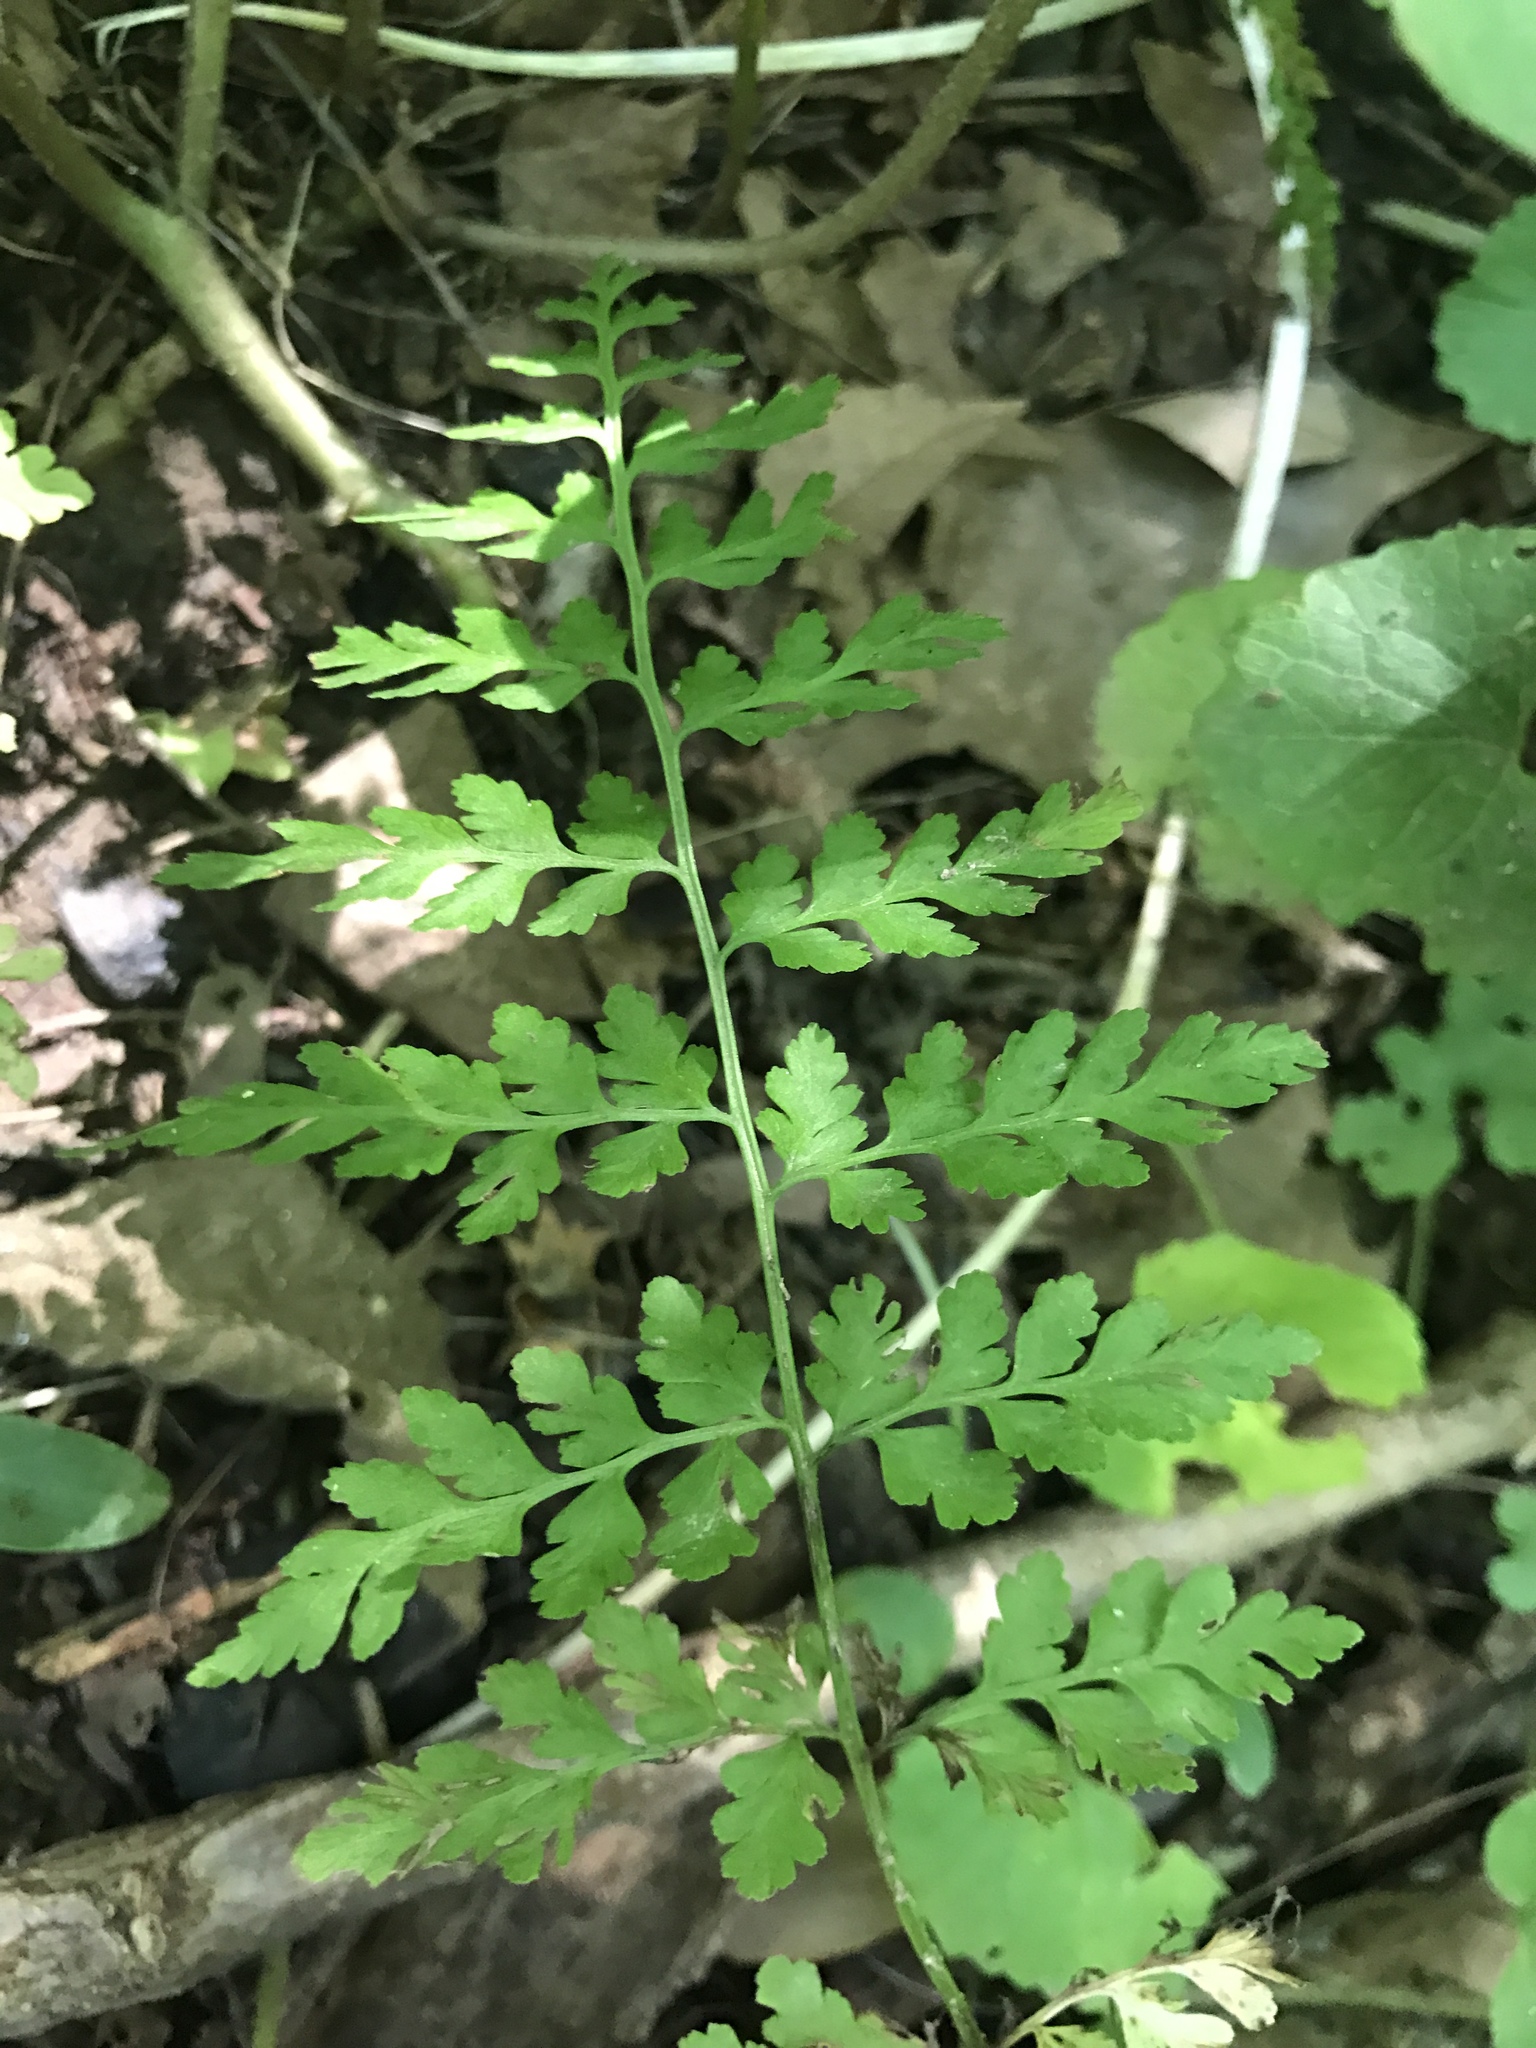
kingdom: Plantae
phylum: Tracheophyta
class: Polypodiopsida
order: Polypodiales
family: Cystopteridaceae
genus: Cystopteris
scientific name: Cystopteris protrusa
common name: Lowland brittle fern
